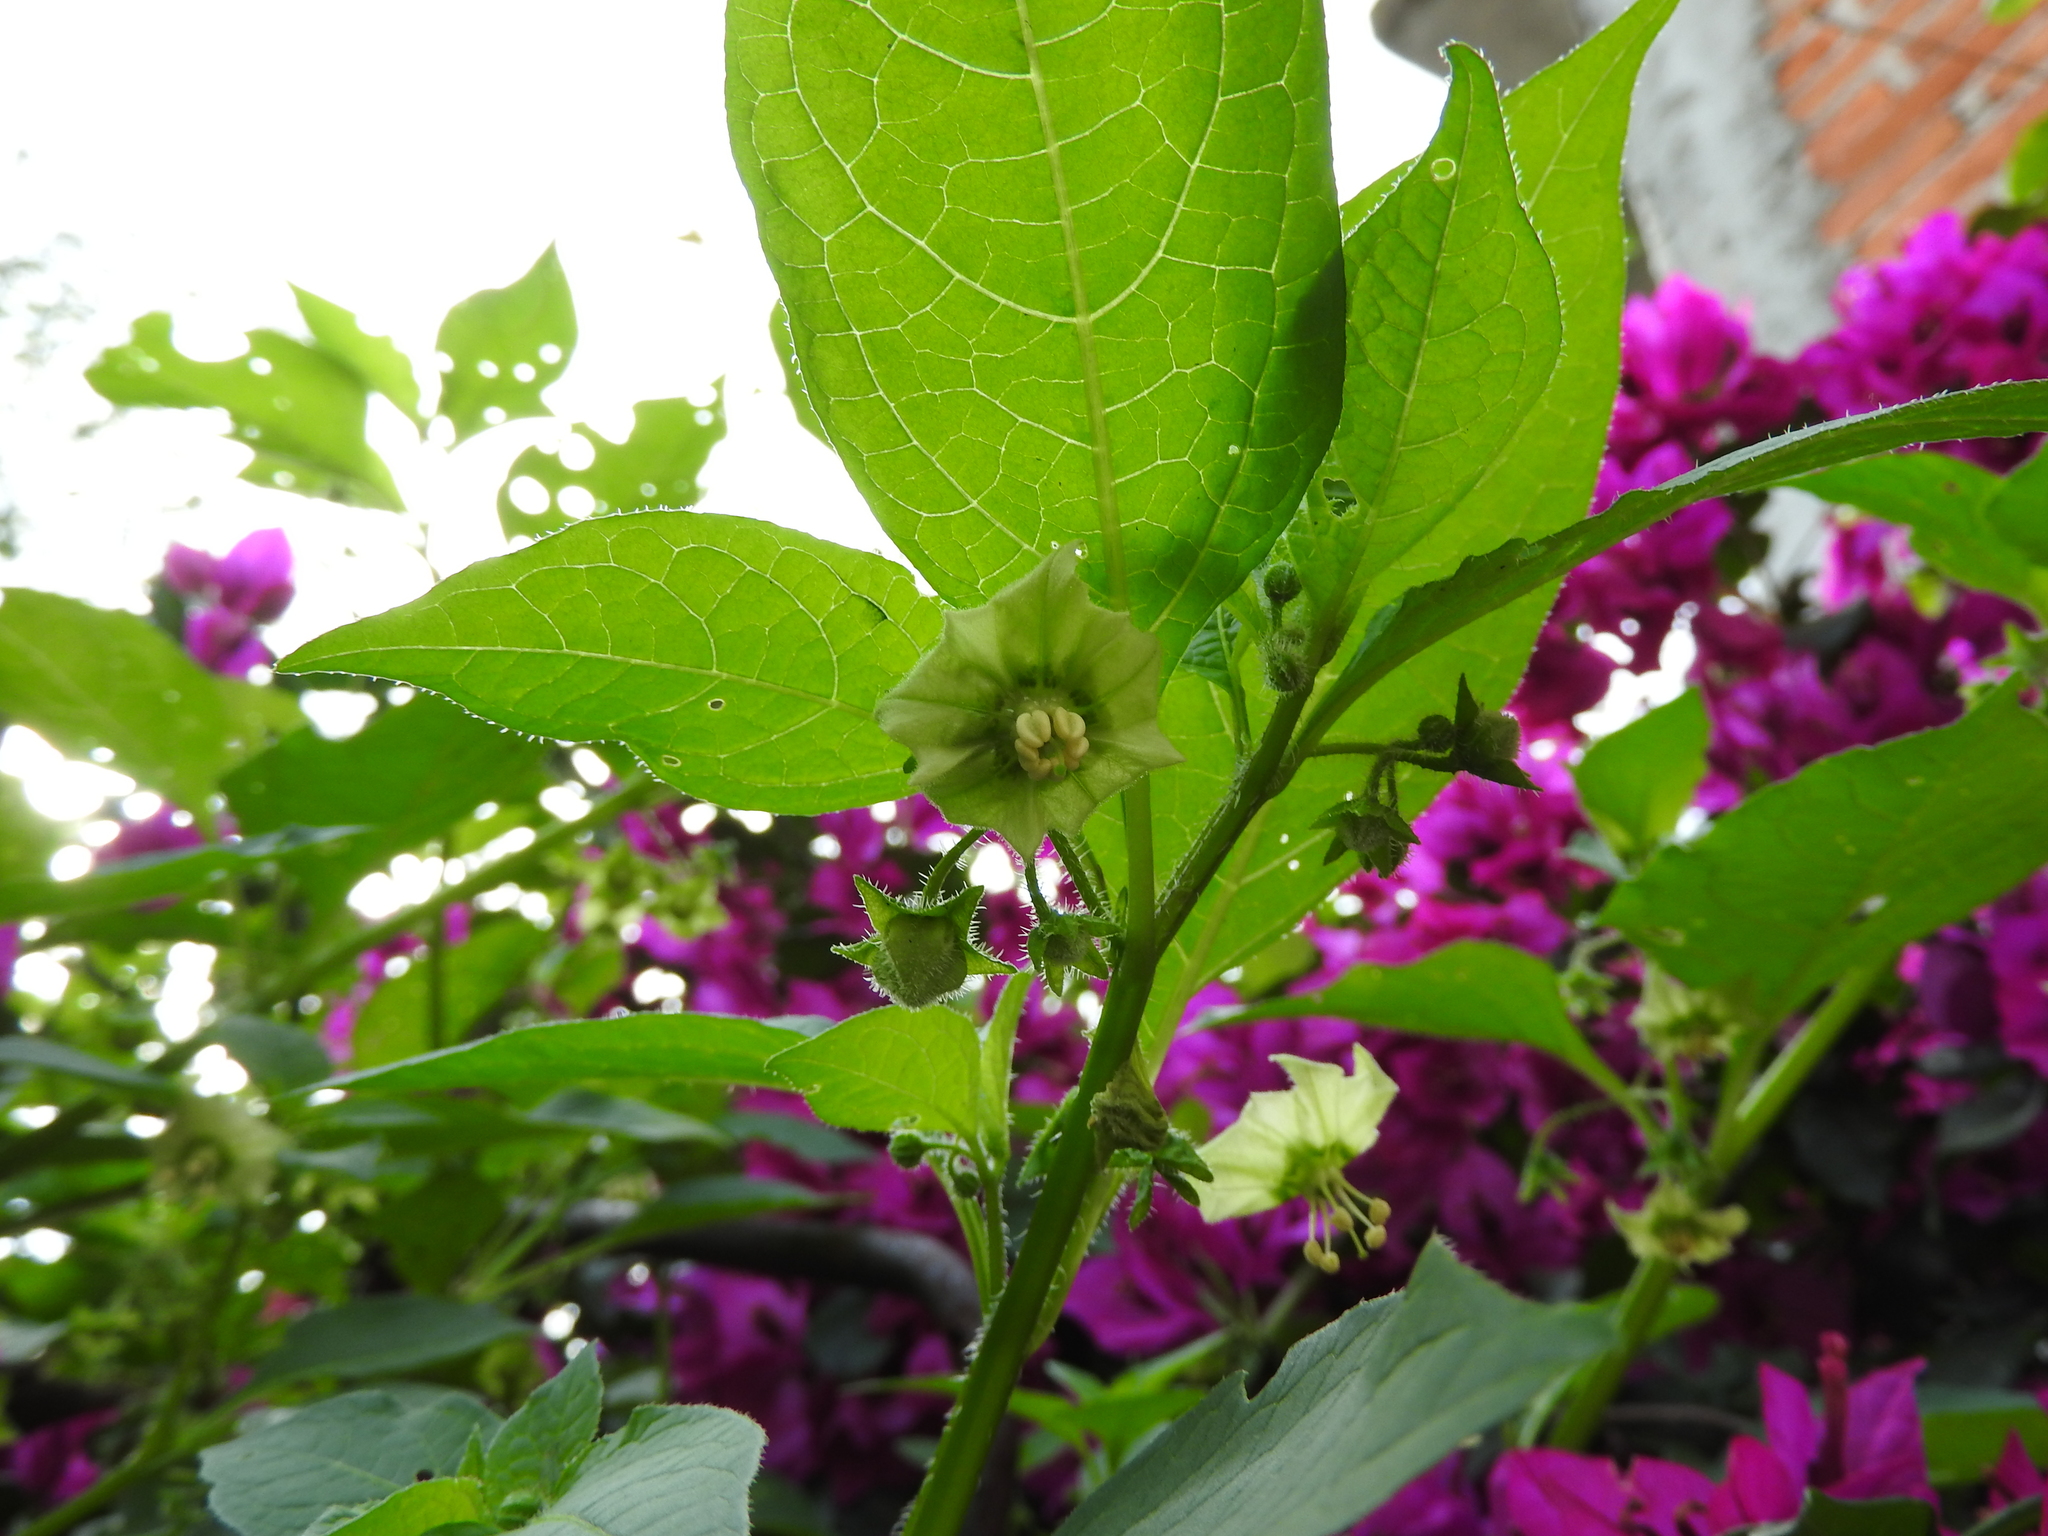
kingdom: Plantae
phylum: Tracheophyta
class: Magnoliopsida
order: Solanales
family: Solanaceae
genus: Jaltomata
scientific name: Jaltomata procumbens
